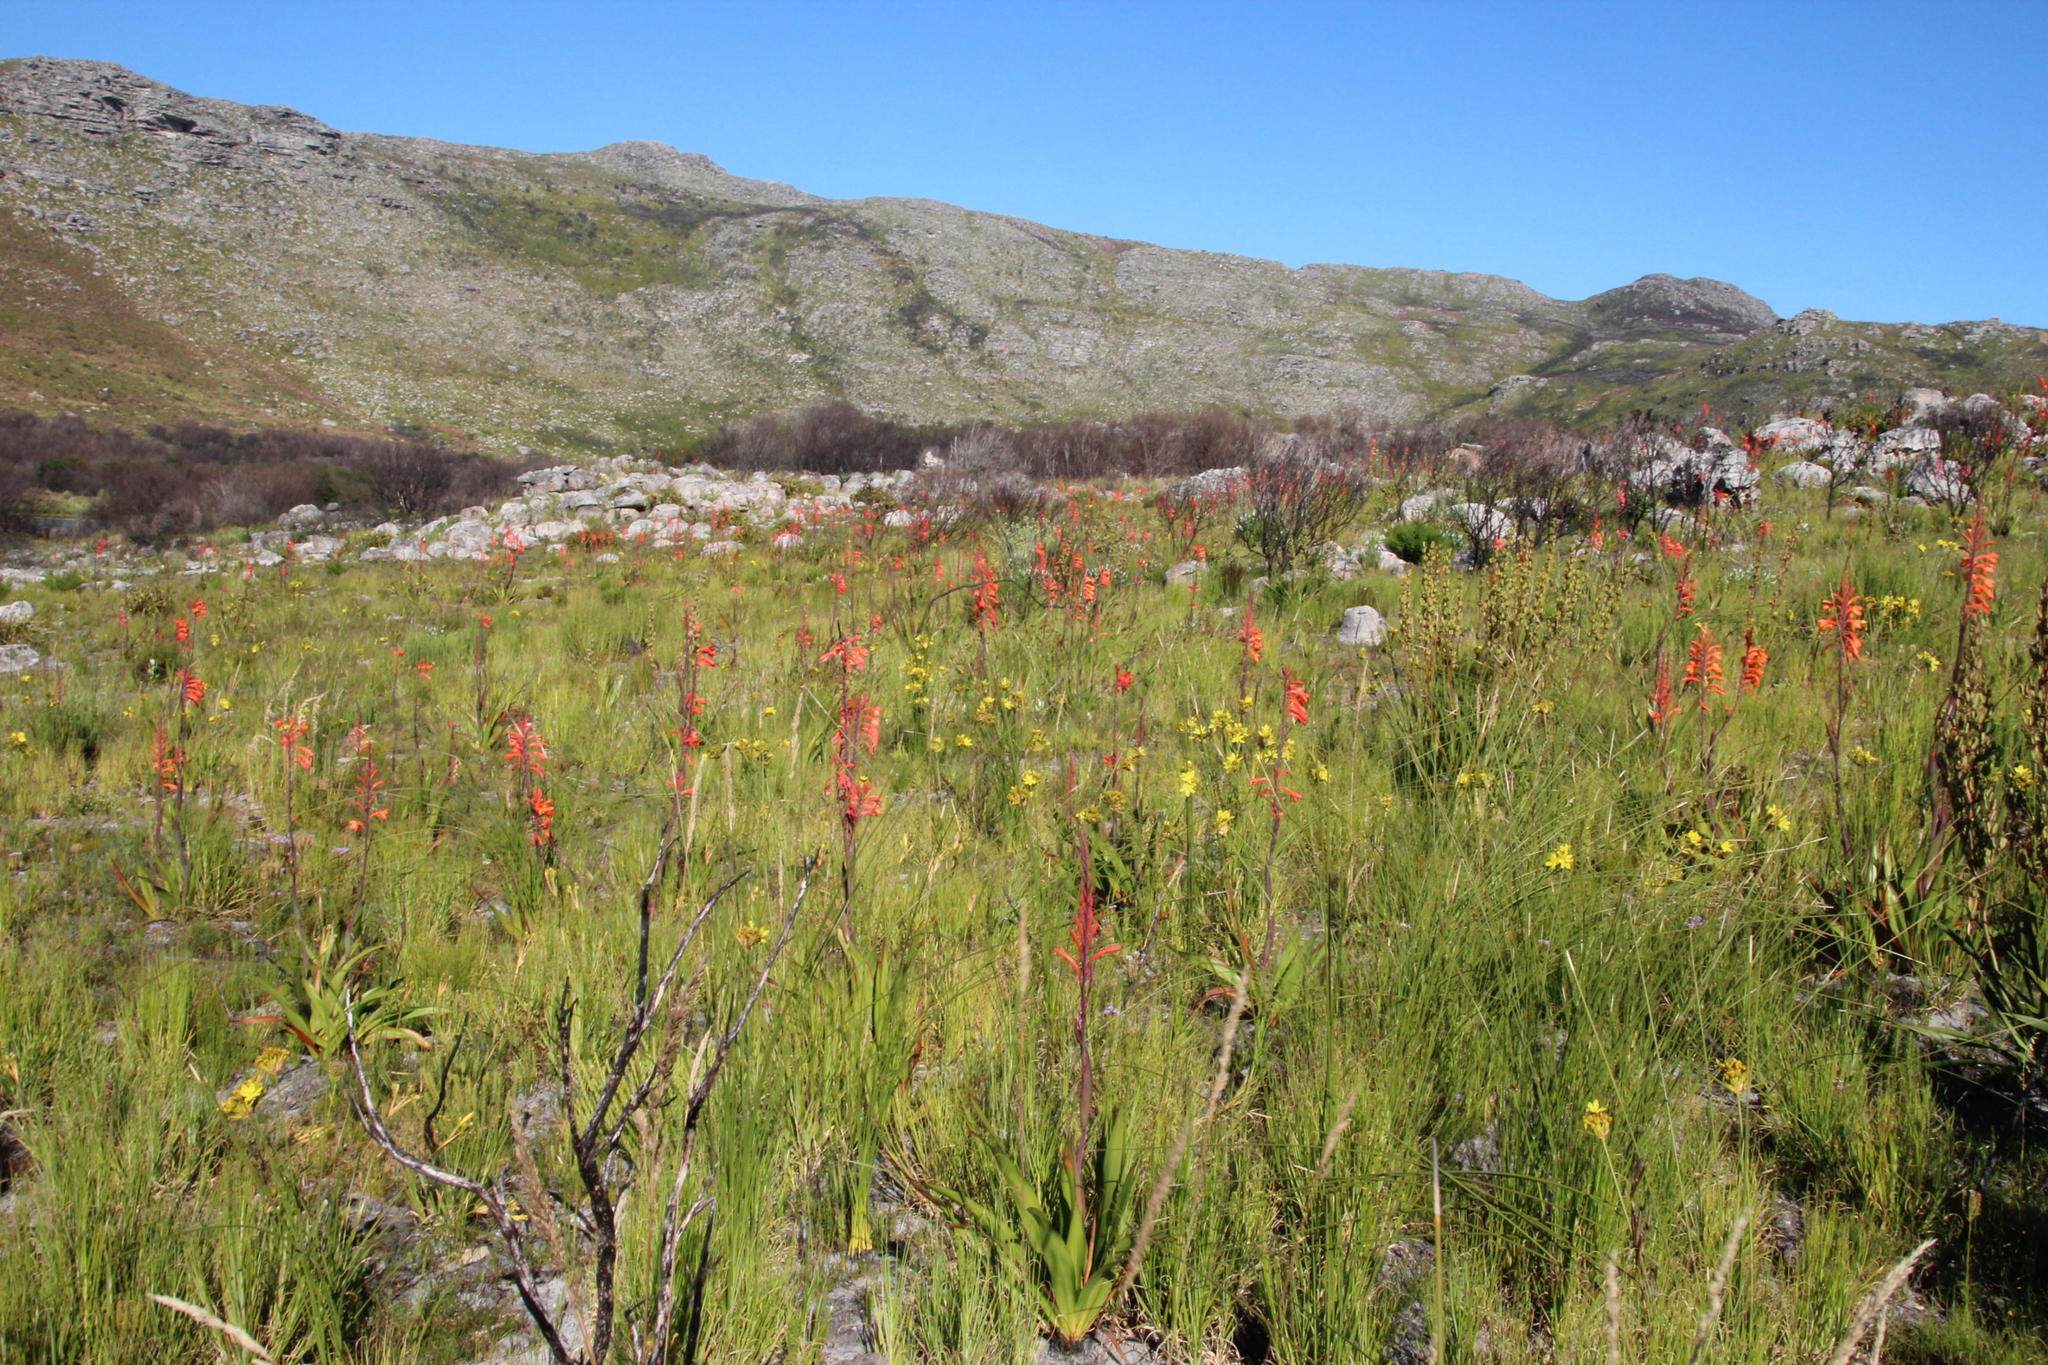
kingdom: Plantae
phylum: Tracheophyta
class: Liliopsida
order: Asparagales
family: Iridaceae
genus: Watsonia
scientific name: Watsonia tabularis
